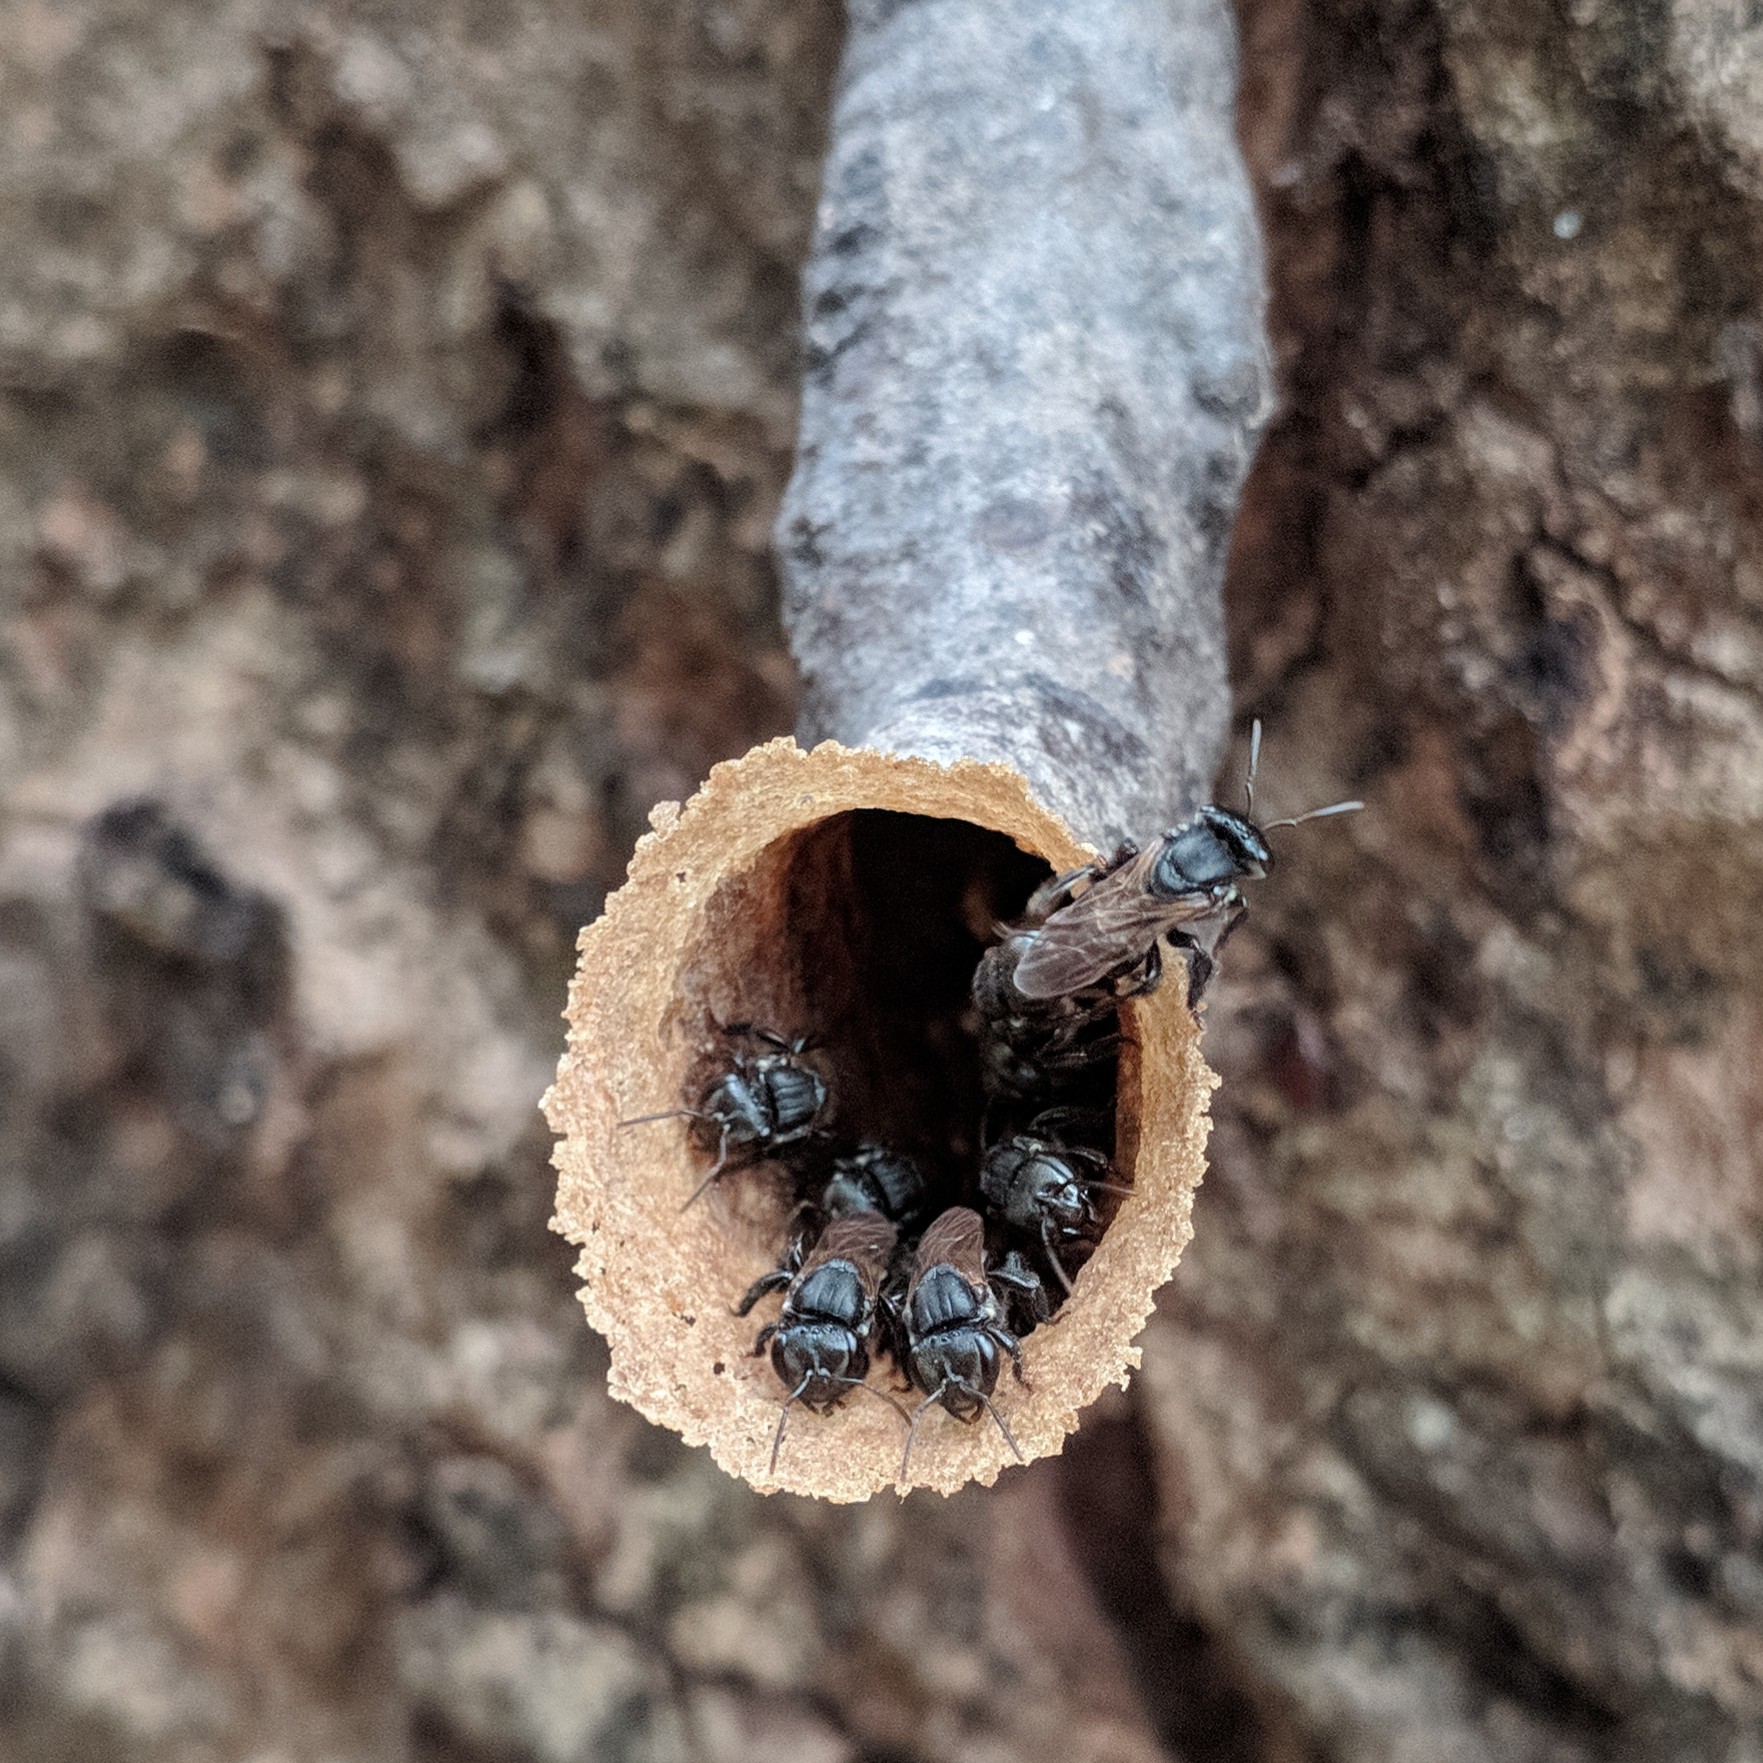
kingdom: Animalia
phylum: Arthropoda
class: Insecta
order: Hymenoptera
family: Apidae
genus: Scaptotrigona
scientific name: Scaptotrigona depilis
